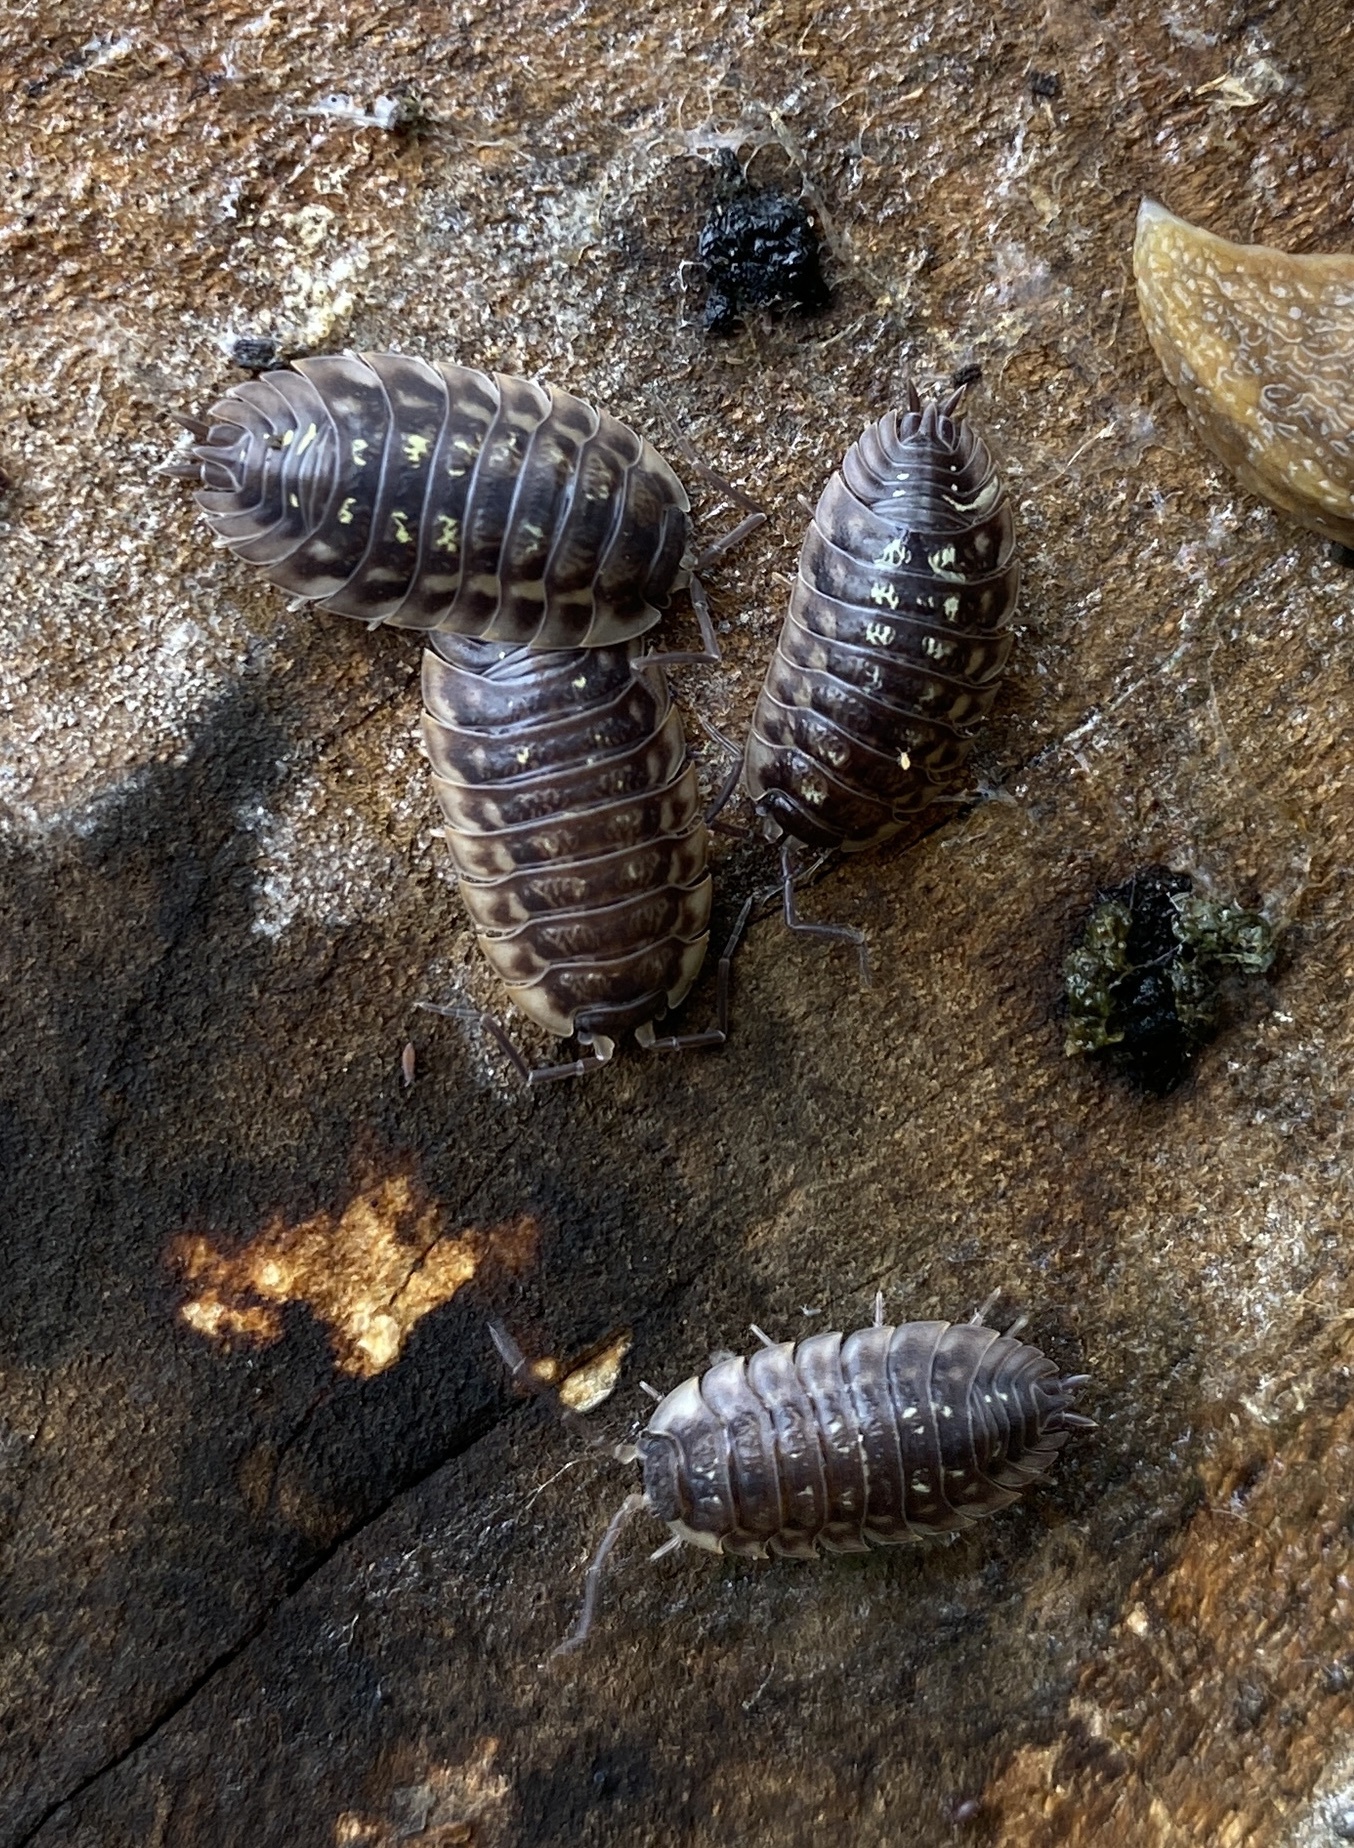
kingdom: Animalia
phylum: Arthropoda
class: Malacostraca
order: Isopoda
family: Oniscidae
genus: Oniscus
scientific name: Oniscus asellus
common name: Common shiny woodlouse
